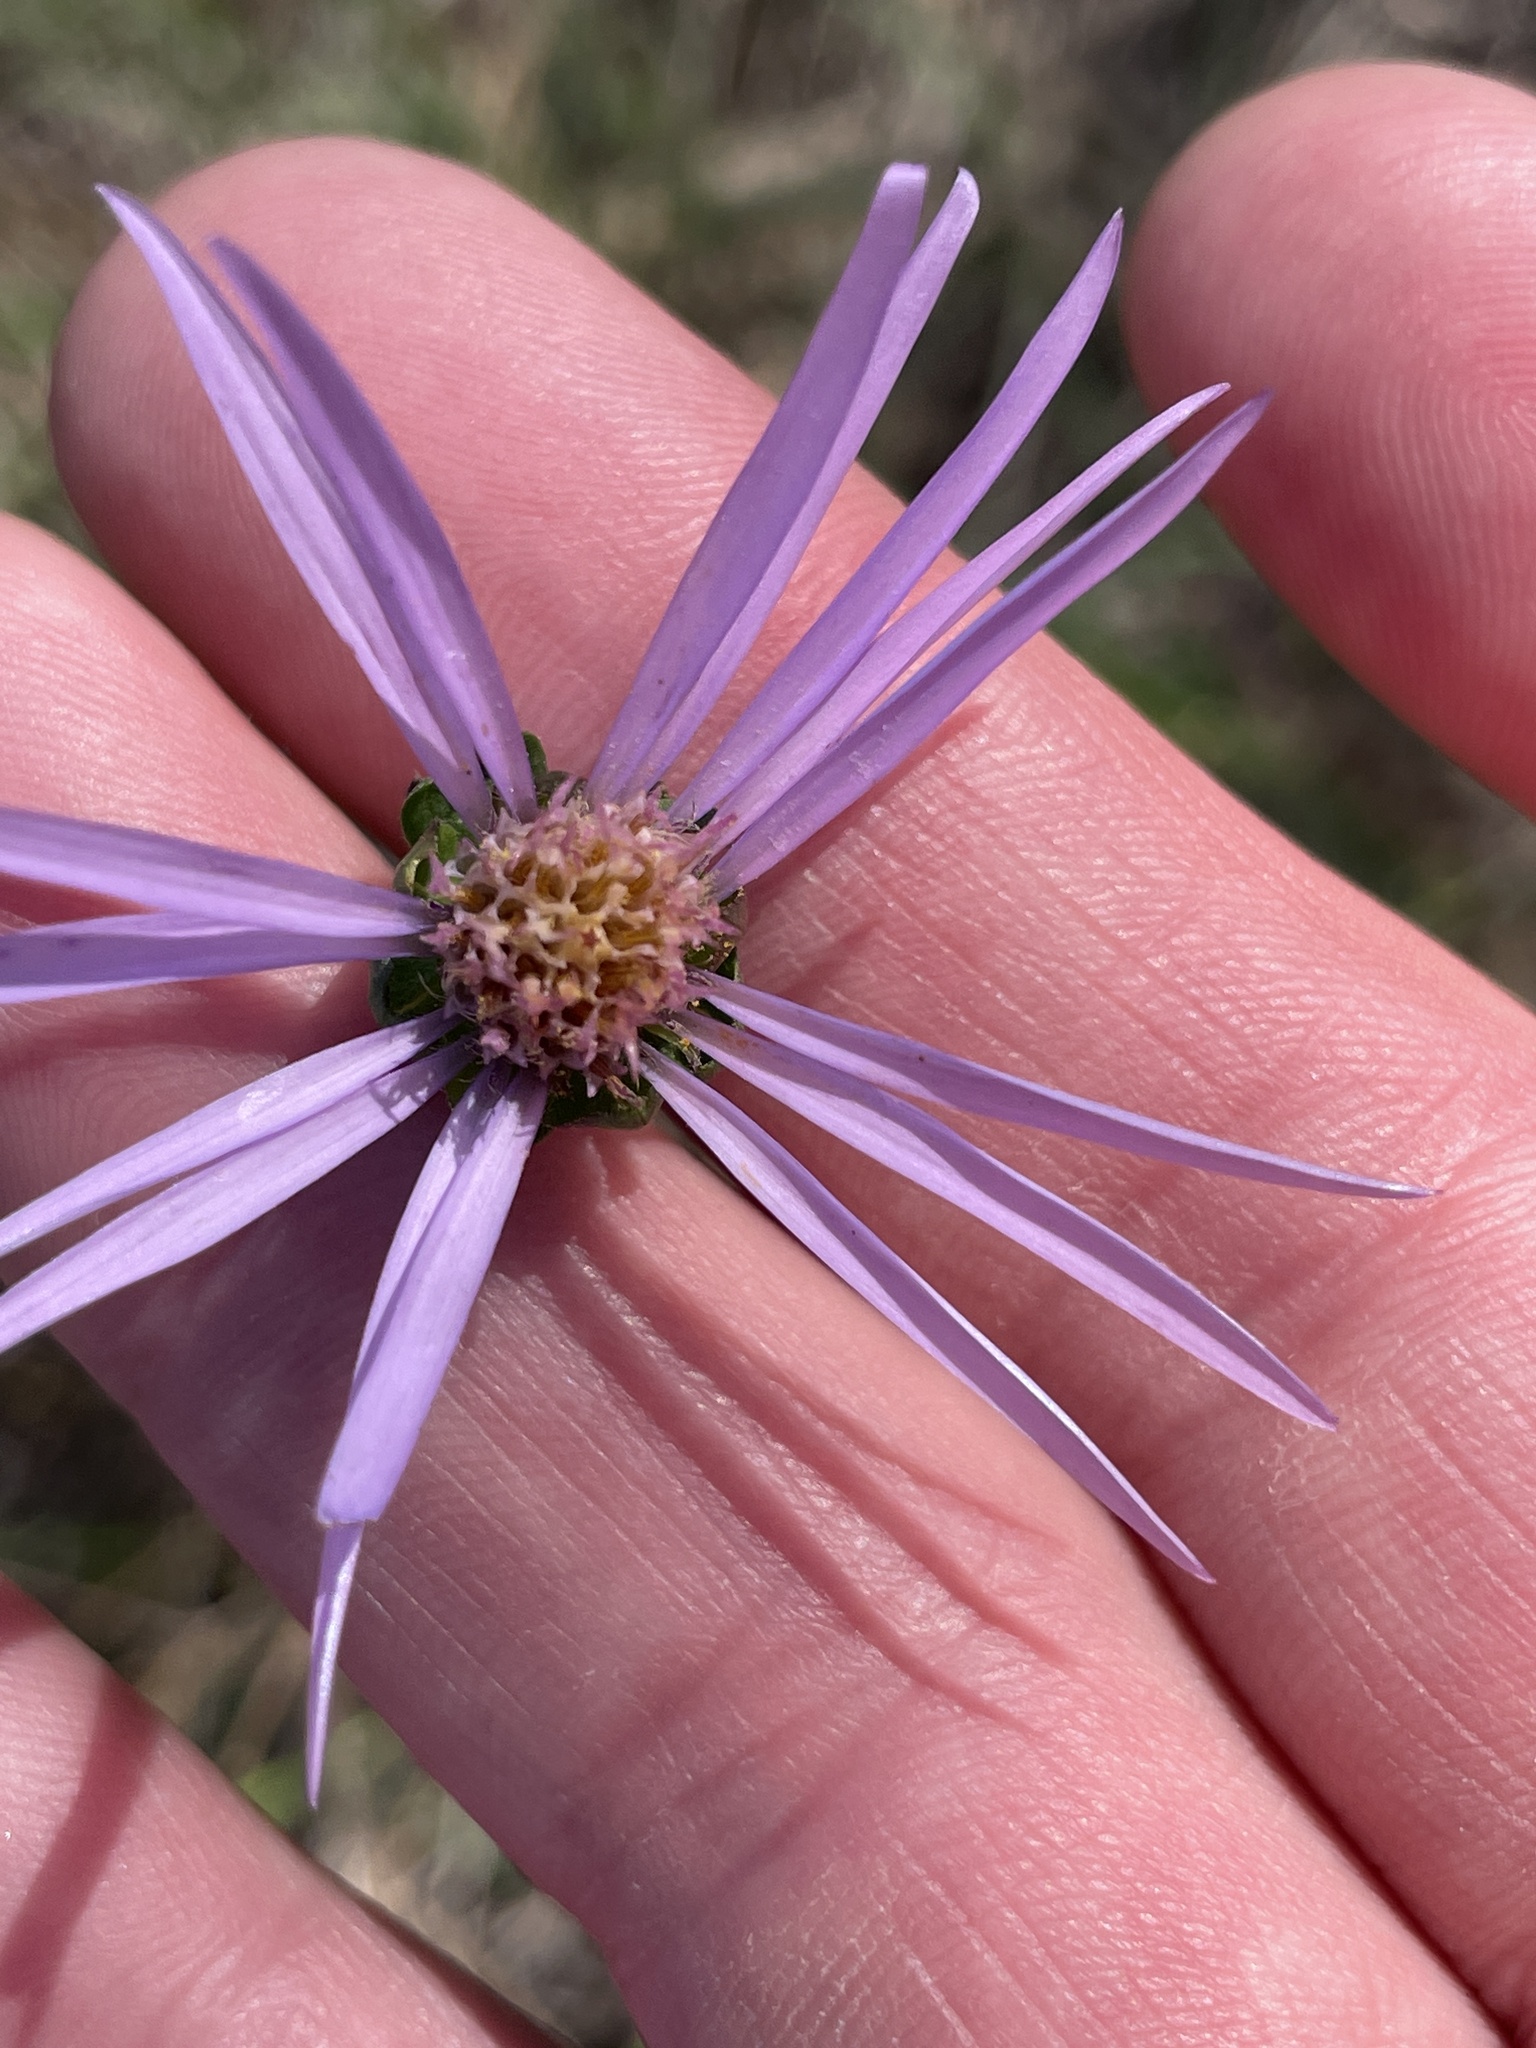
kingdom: Plantae
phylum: Tracheophyta
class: Magnoliopsida
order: Asterales
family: Asteraceae
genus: Symphyotrichum
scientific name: Symphyotrichum pratense
